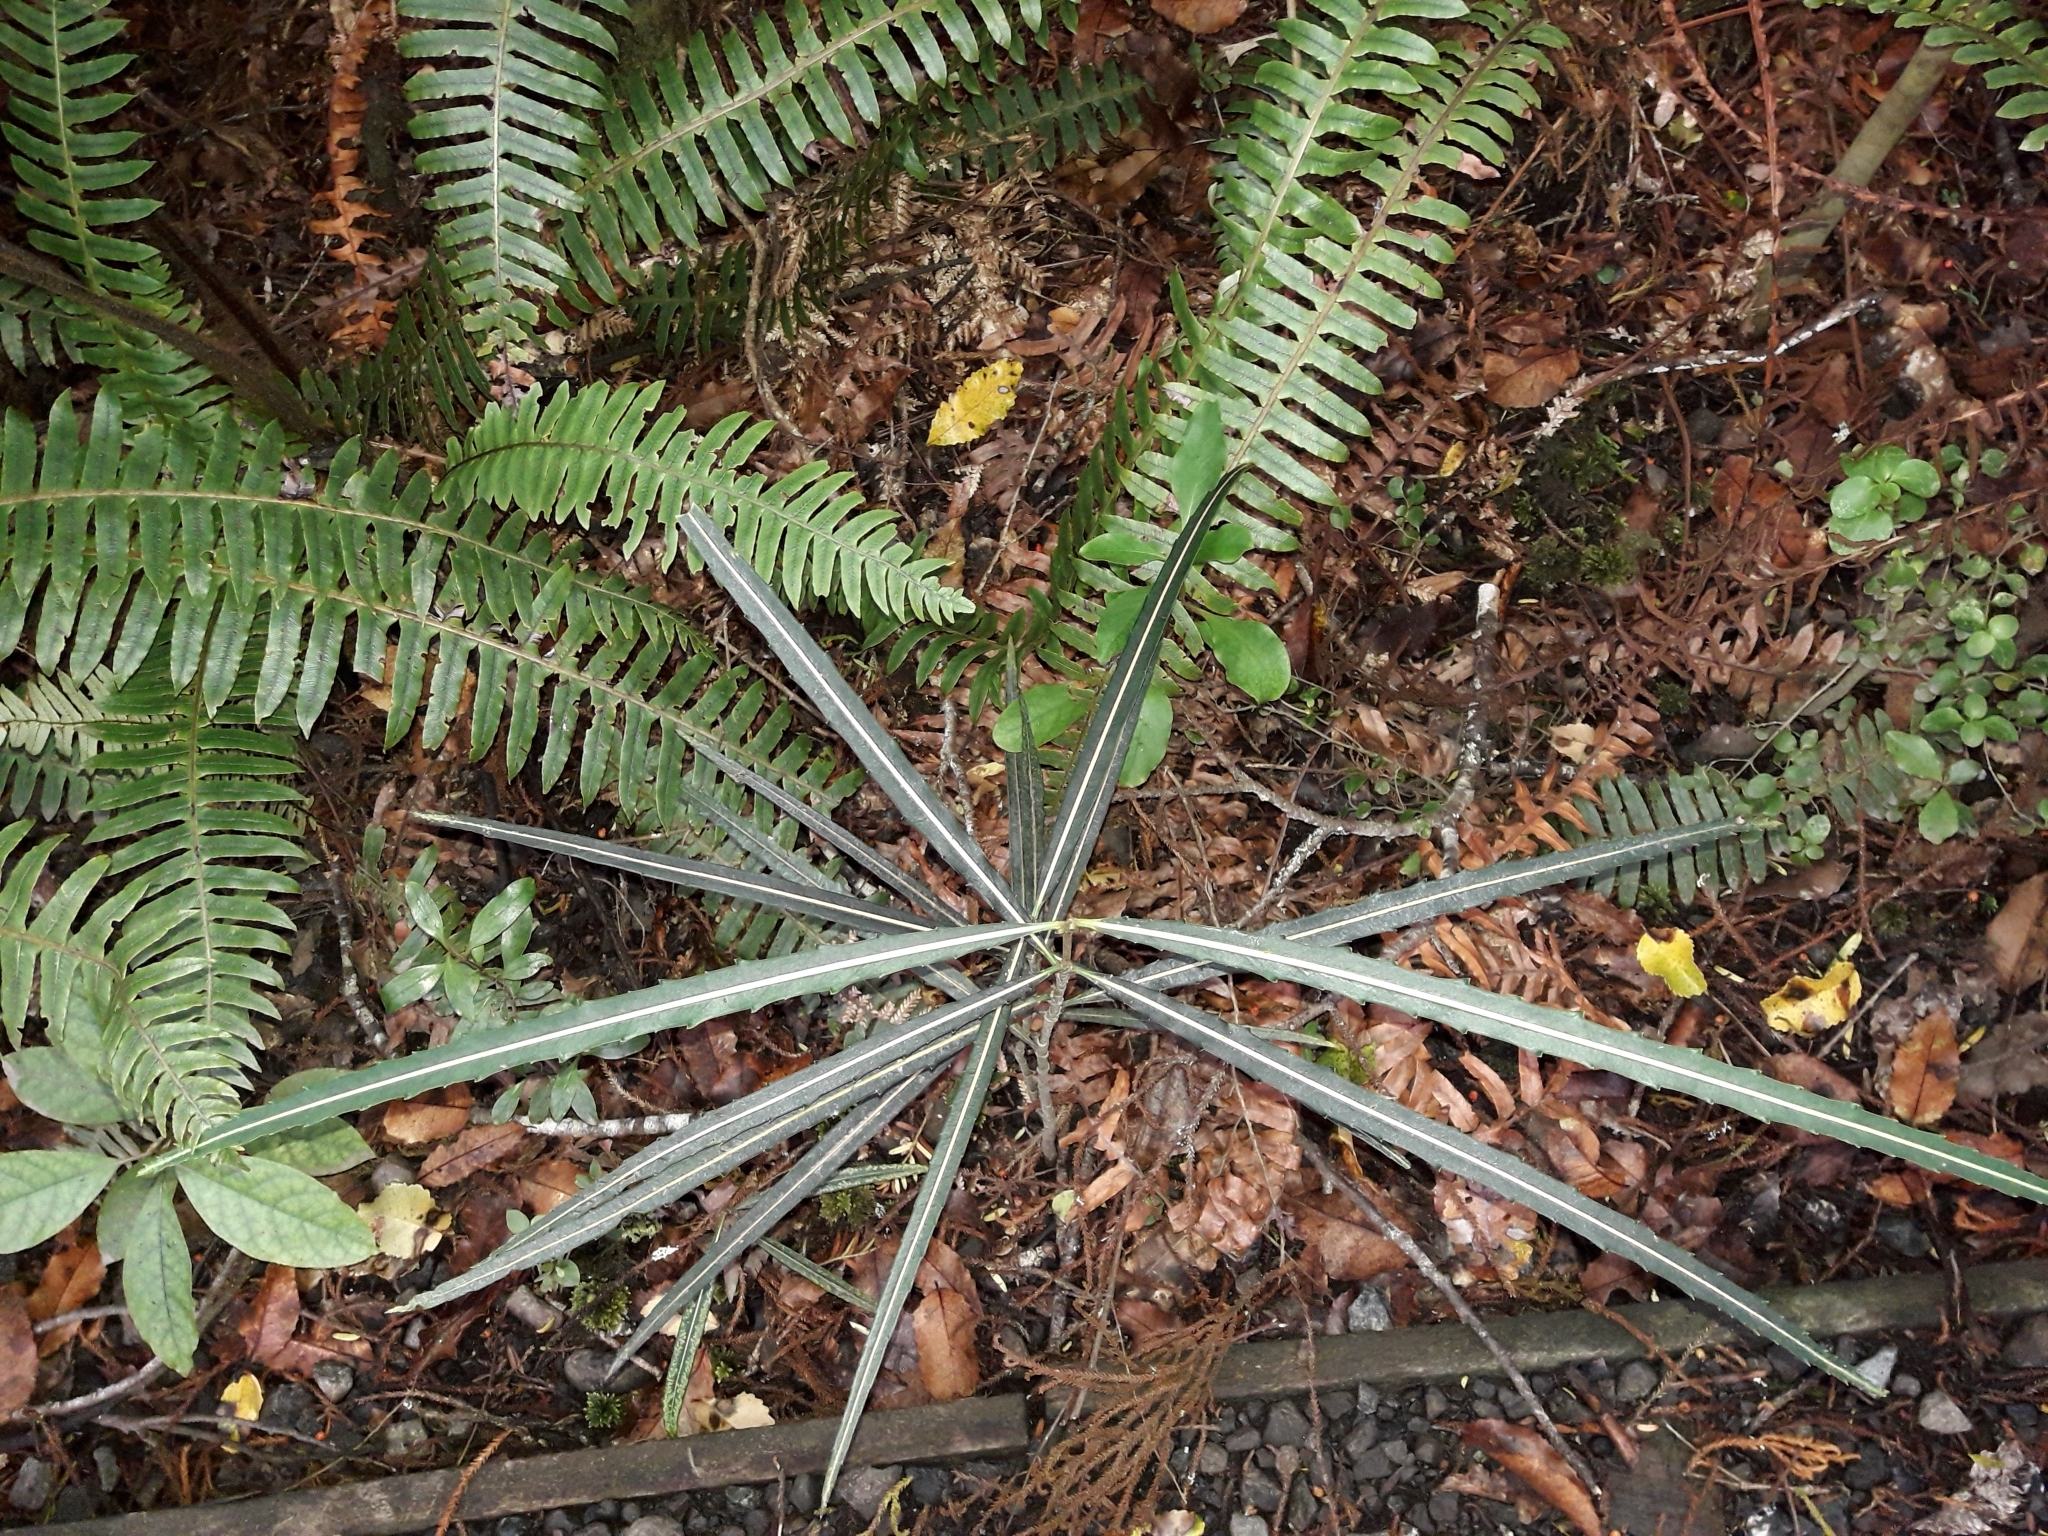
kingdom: Plantae
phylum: Tracheophyta
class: Magnoliopsida
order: Apiales
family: Araliaceae
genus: Pseudopanax
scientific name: Pseudopanax crassifolius
